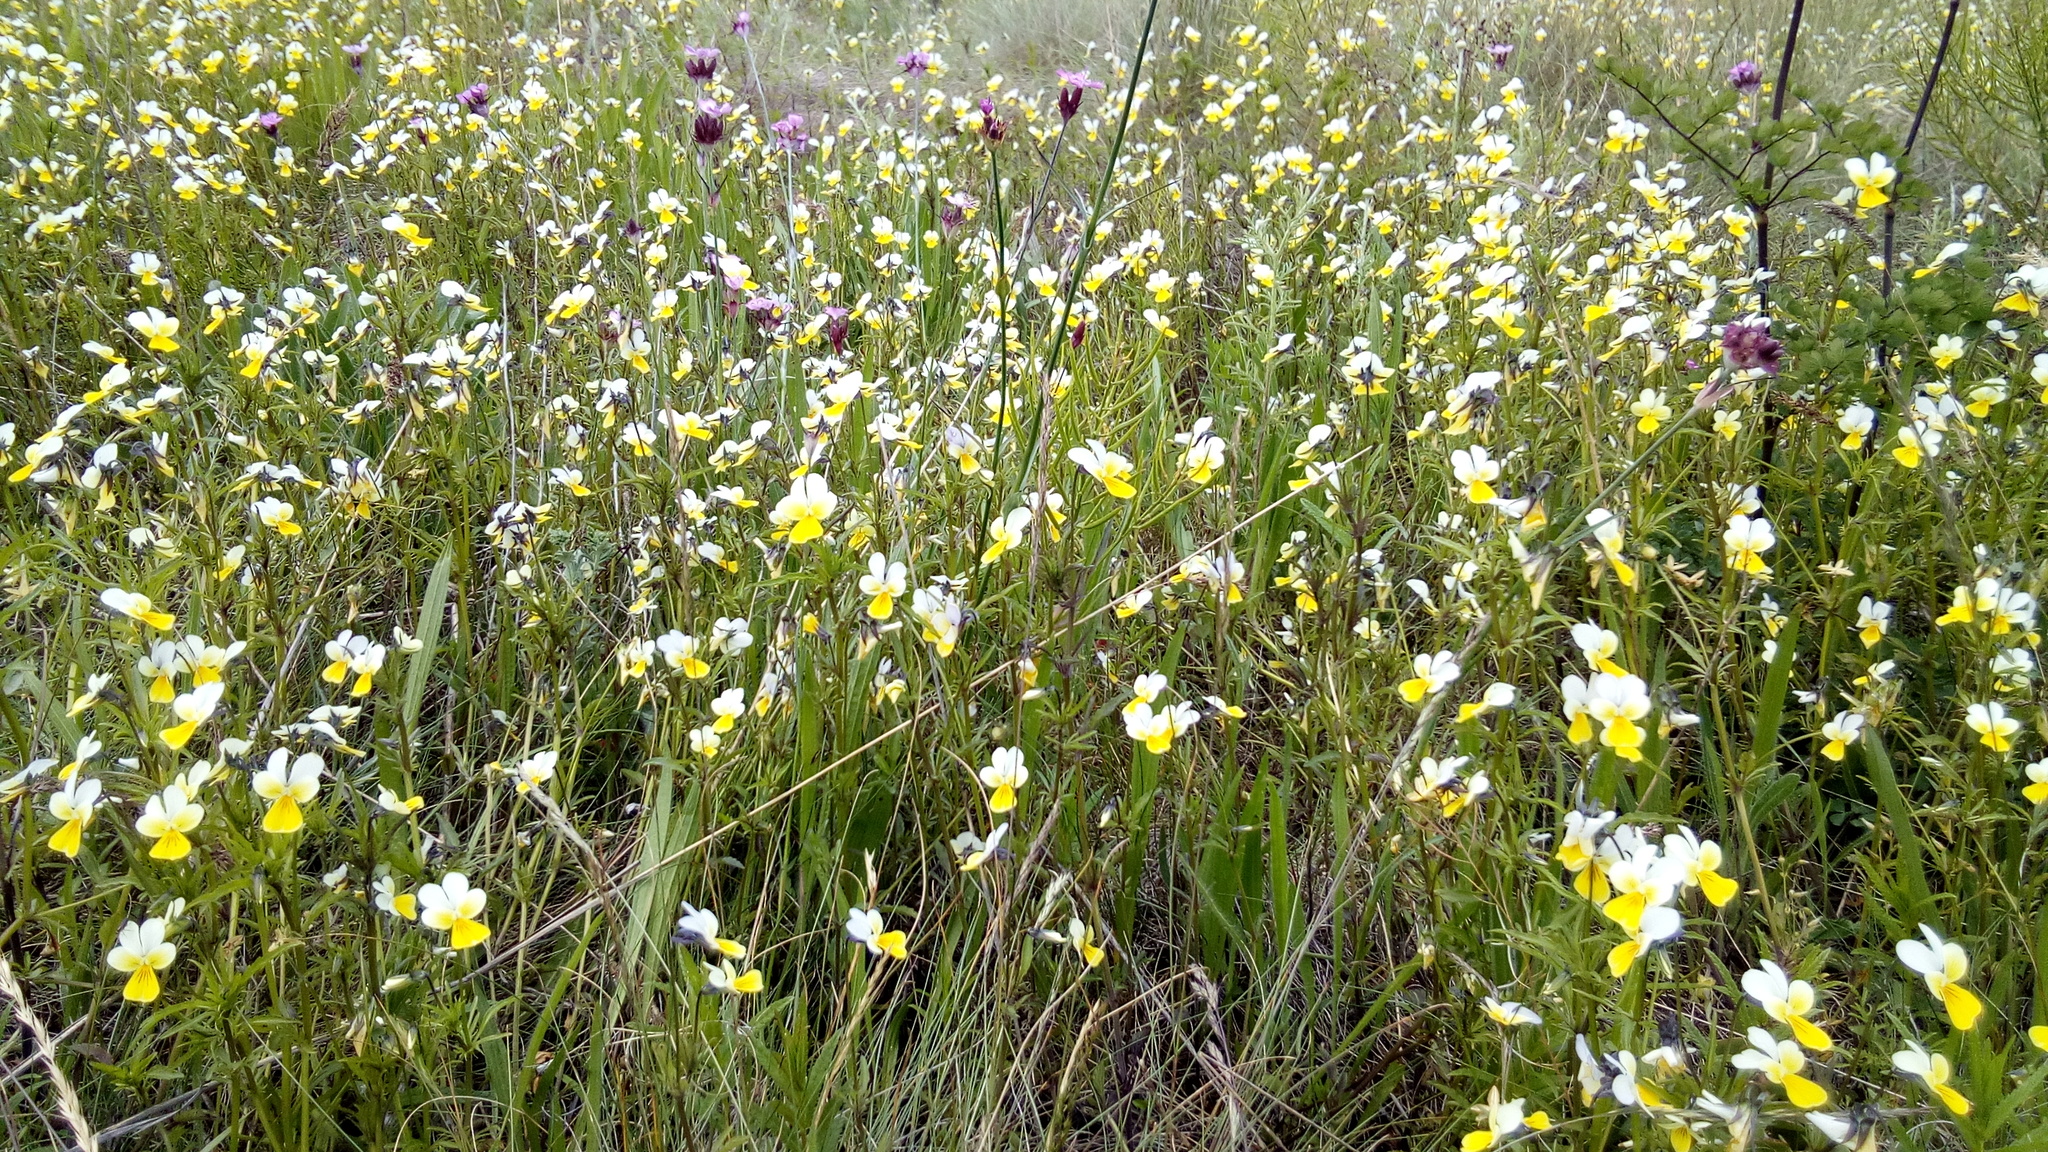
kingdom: Plantae
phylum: Tracheophyta
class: Magnoliopsida
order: Malpighiales
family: Violaceae
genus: Viola
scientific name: Viola arvensis
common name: Field pansy
